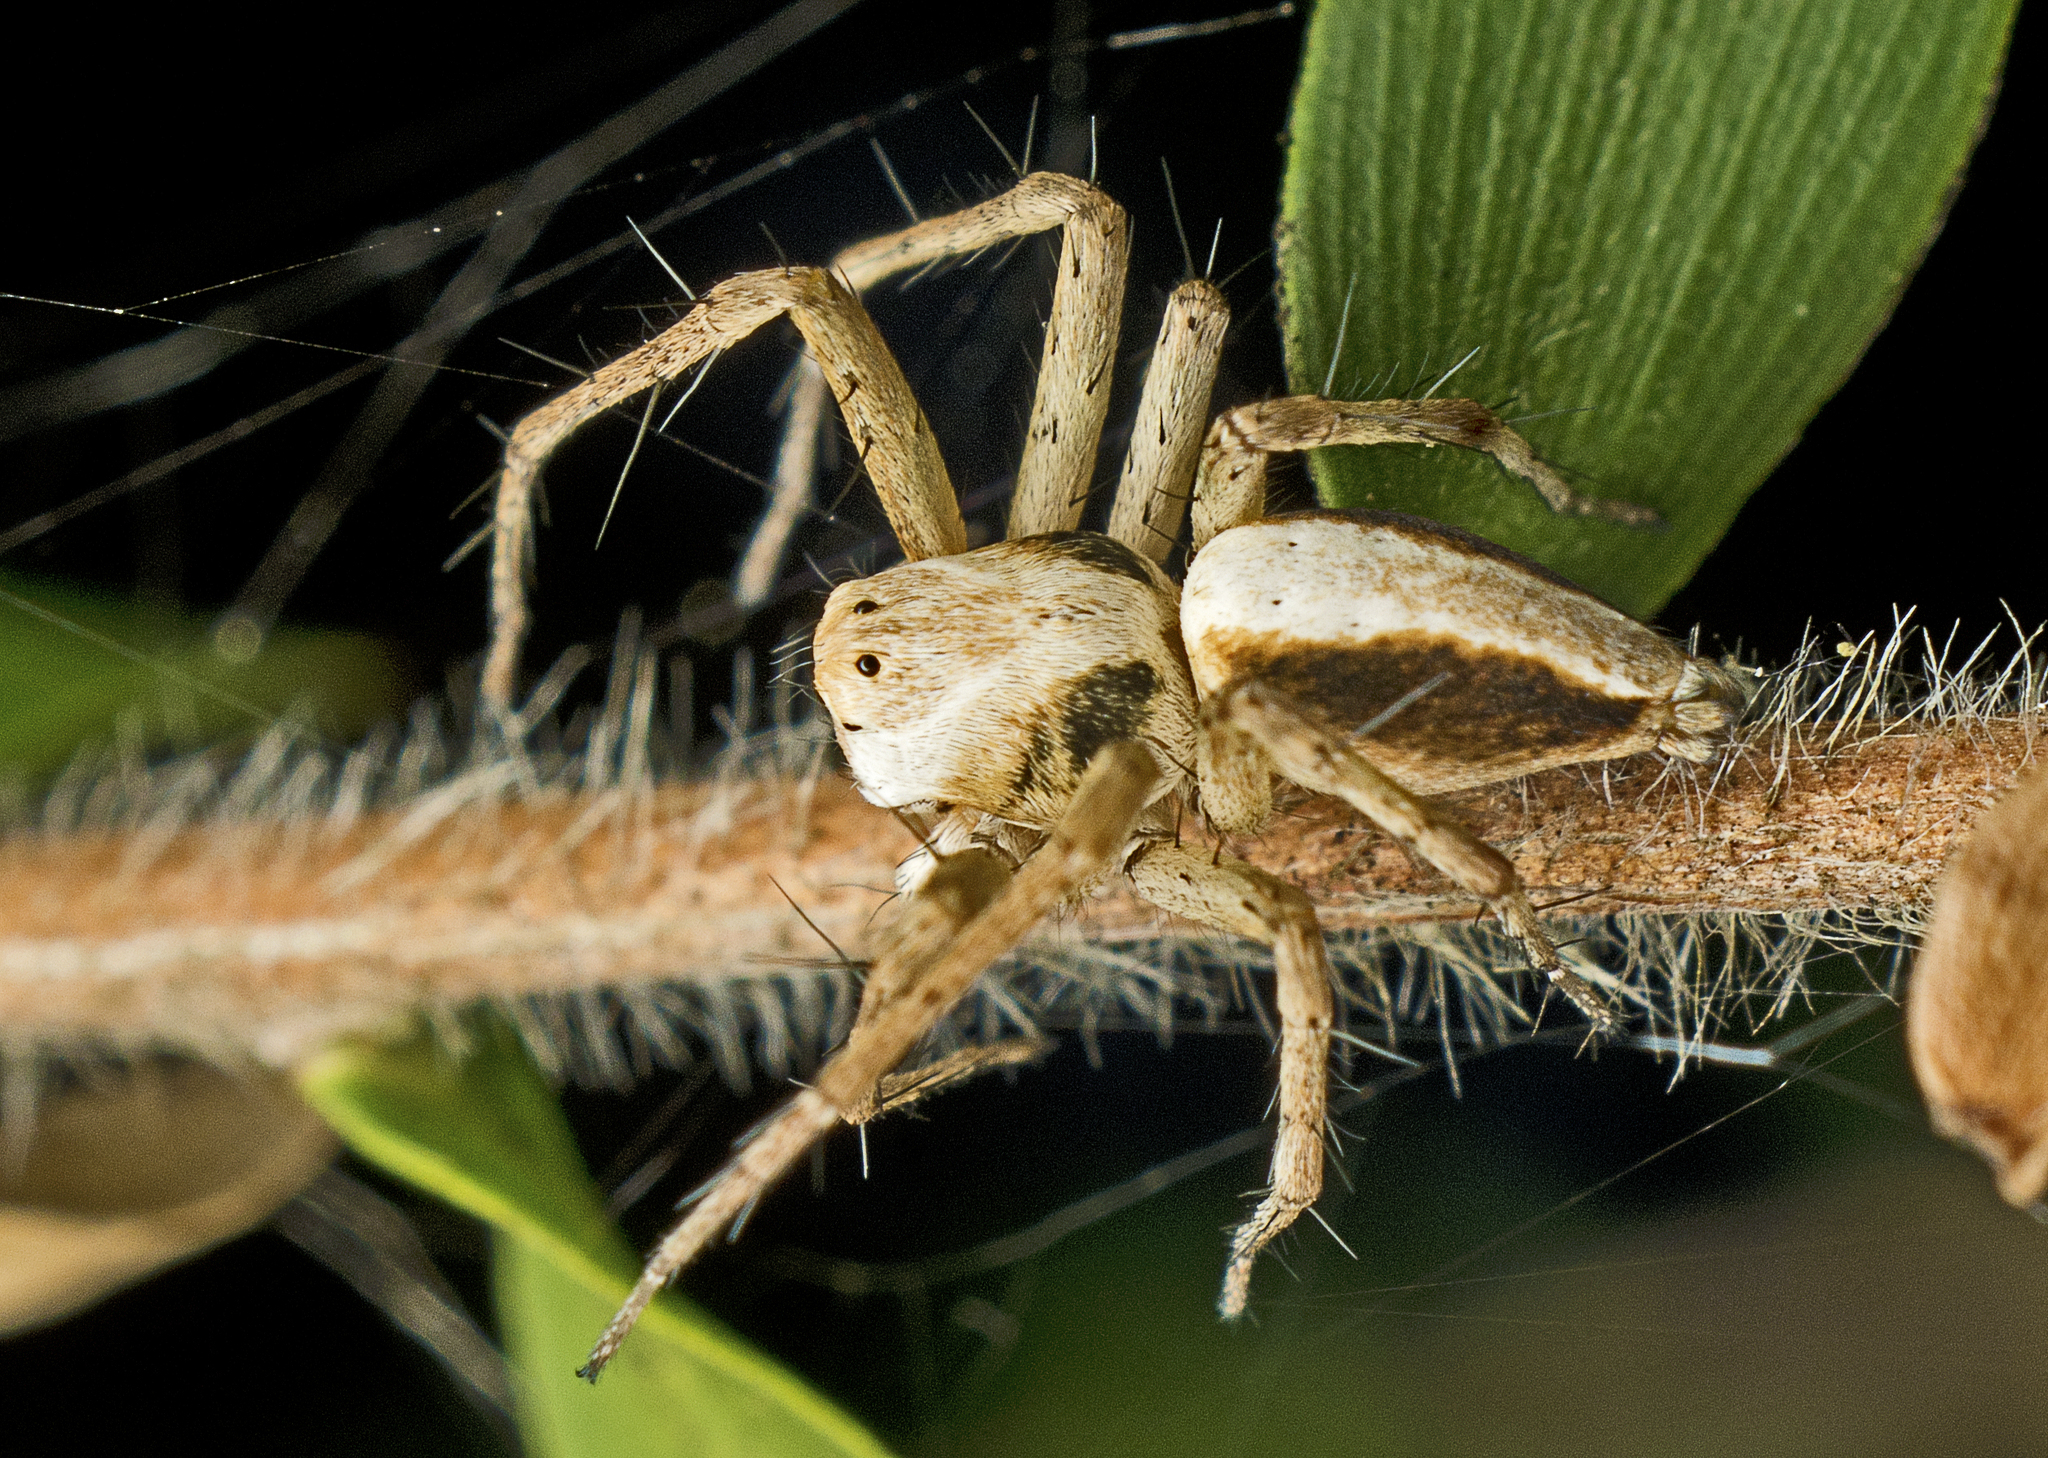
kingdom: Animalia
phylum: Arthropoda
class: Arachnida
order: Araneae
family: Oxyopidae
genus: Oxyopes
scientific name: Oxyopes variabilis
